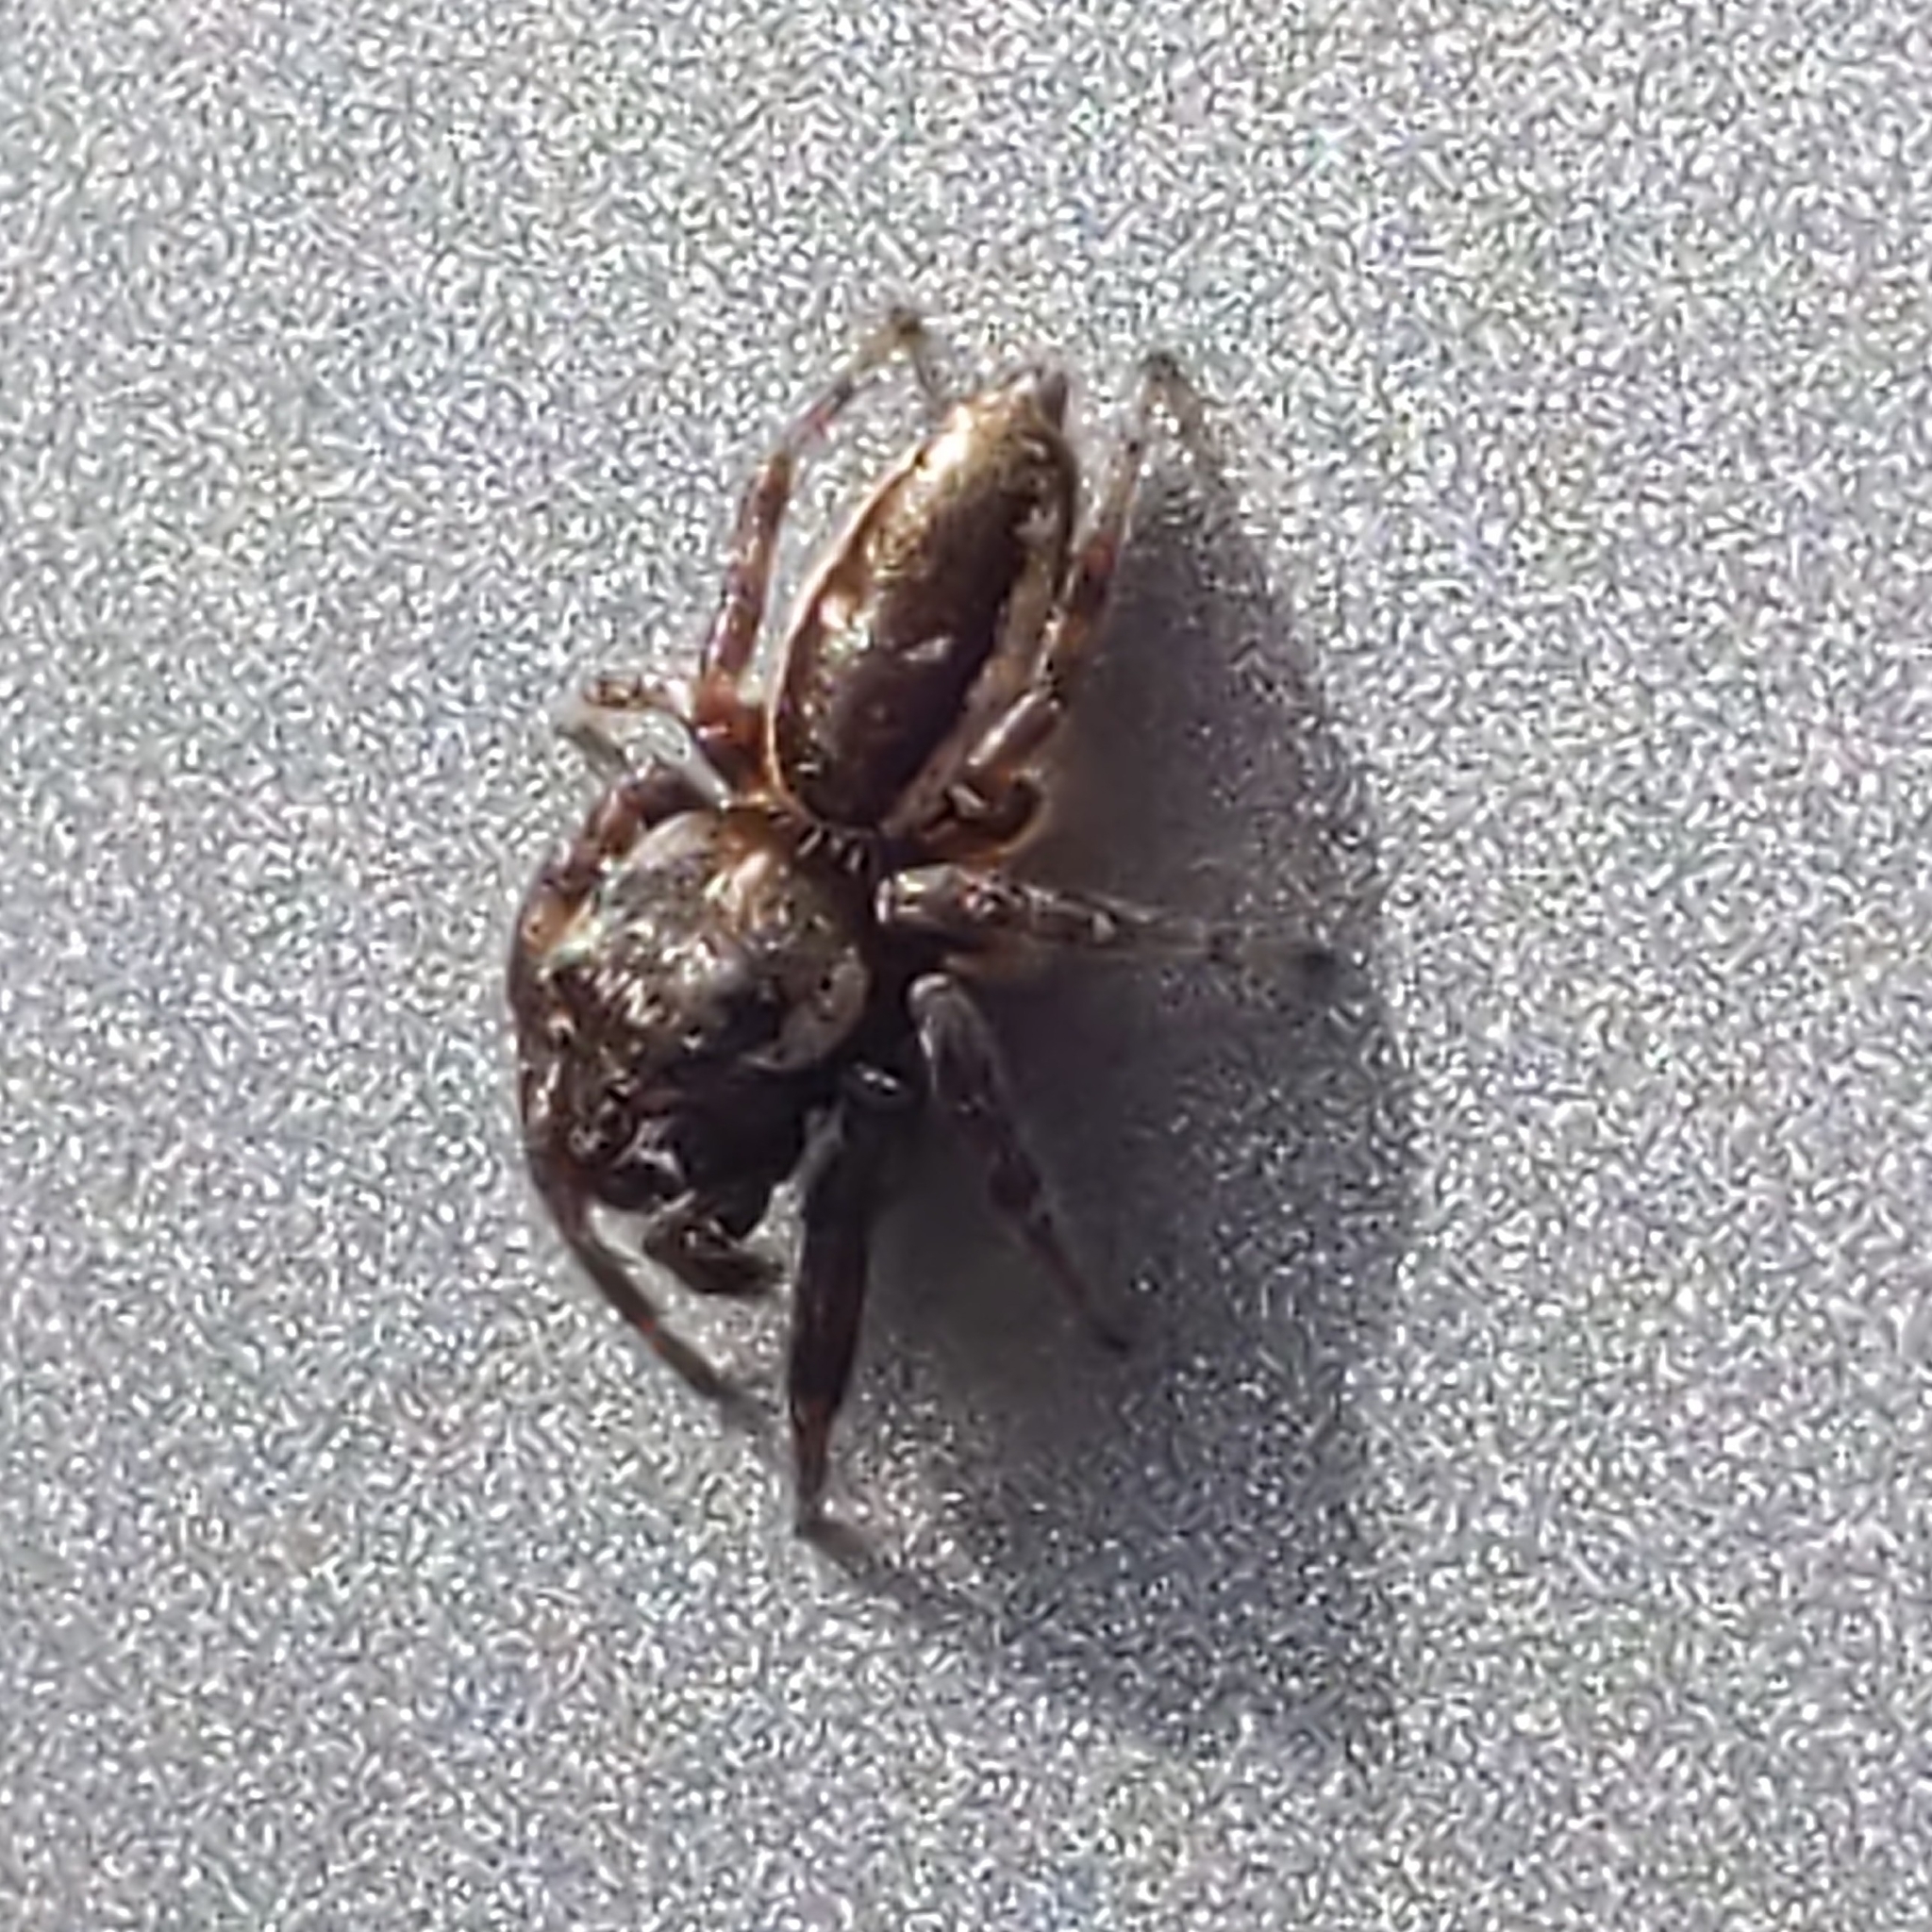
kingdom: Animalia
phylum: Arthropoda
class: Arachnida
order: Araneae
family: Salticidae
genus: Eris
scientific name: Eris militaris
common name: Bronze jumper
